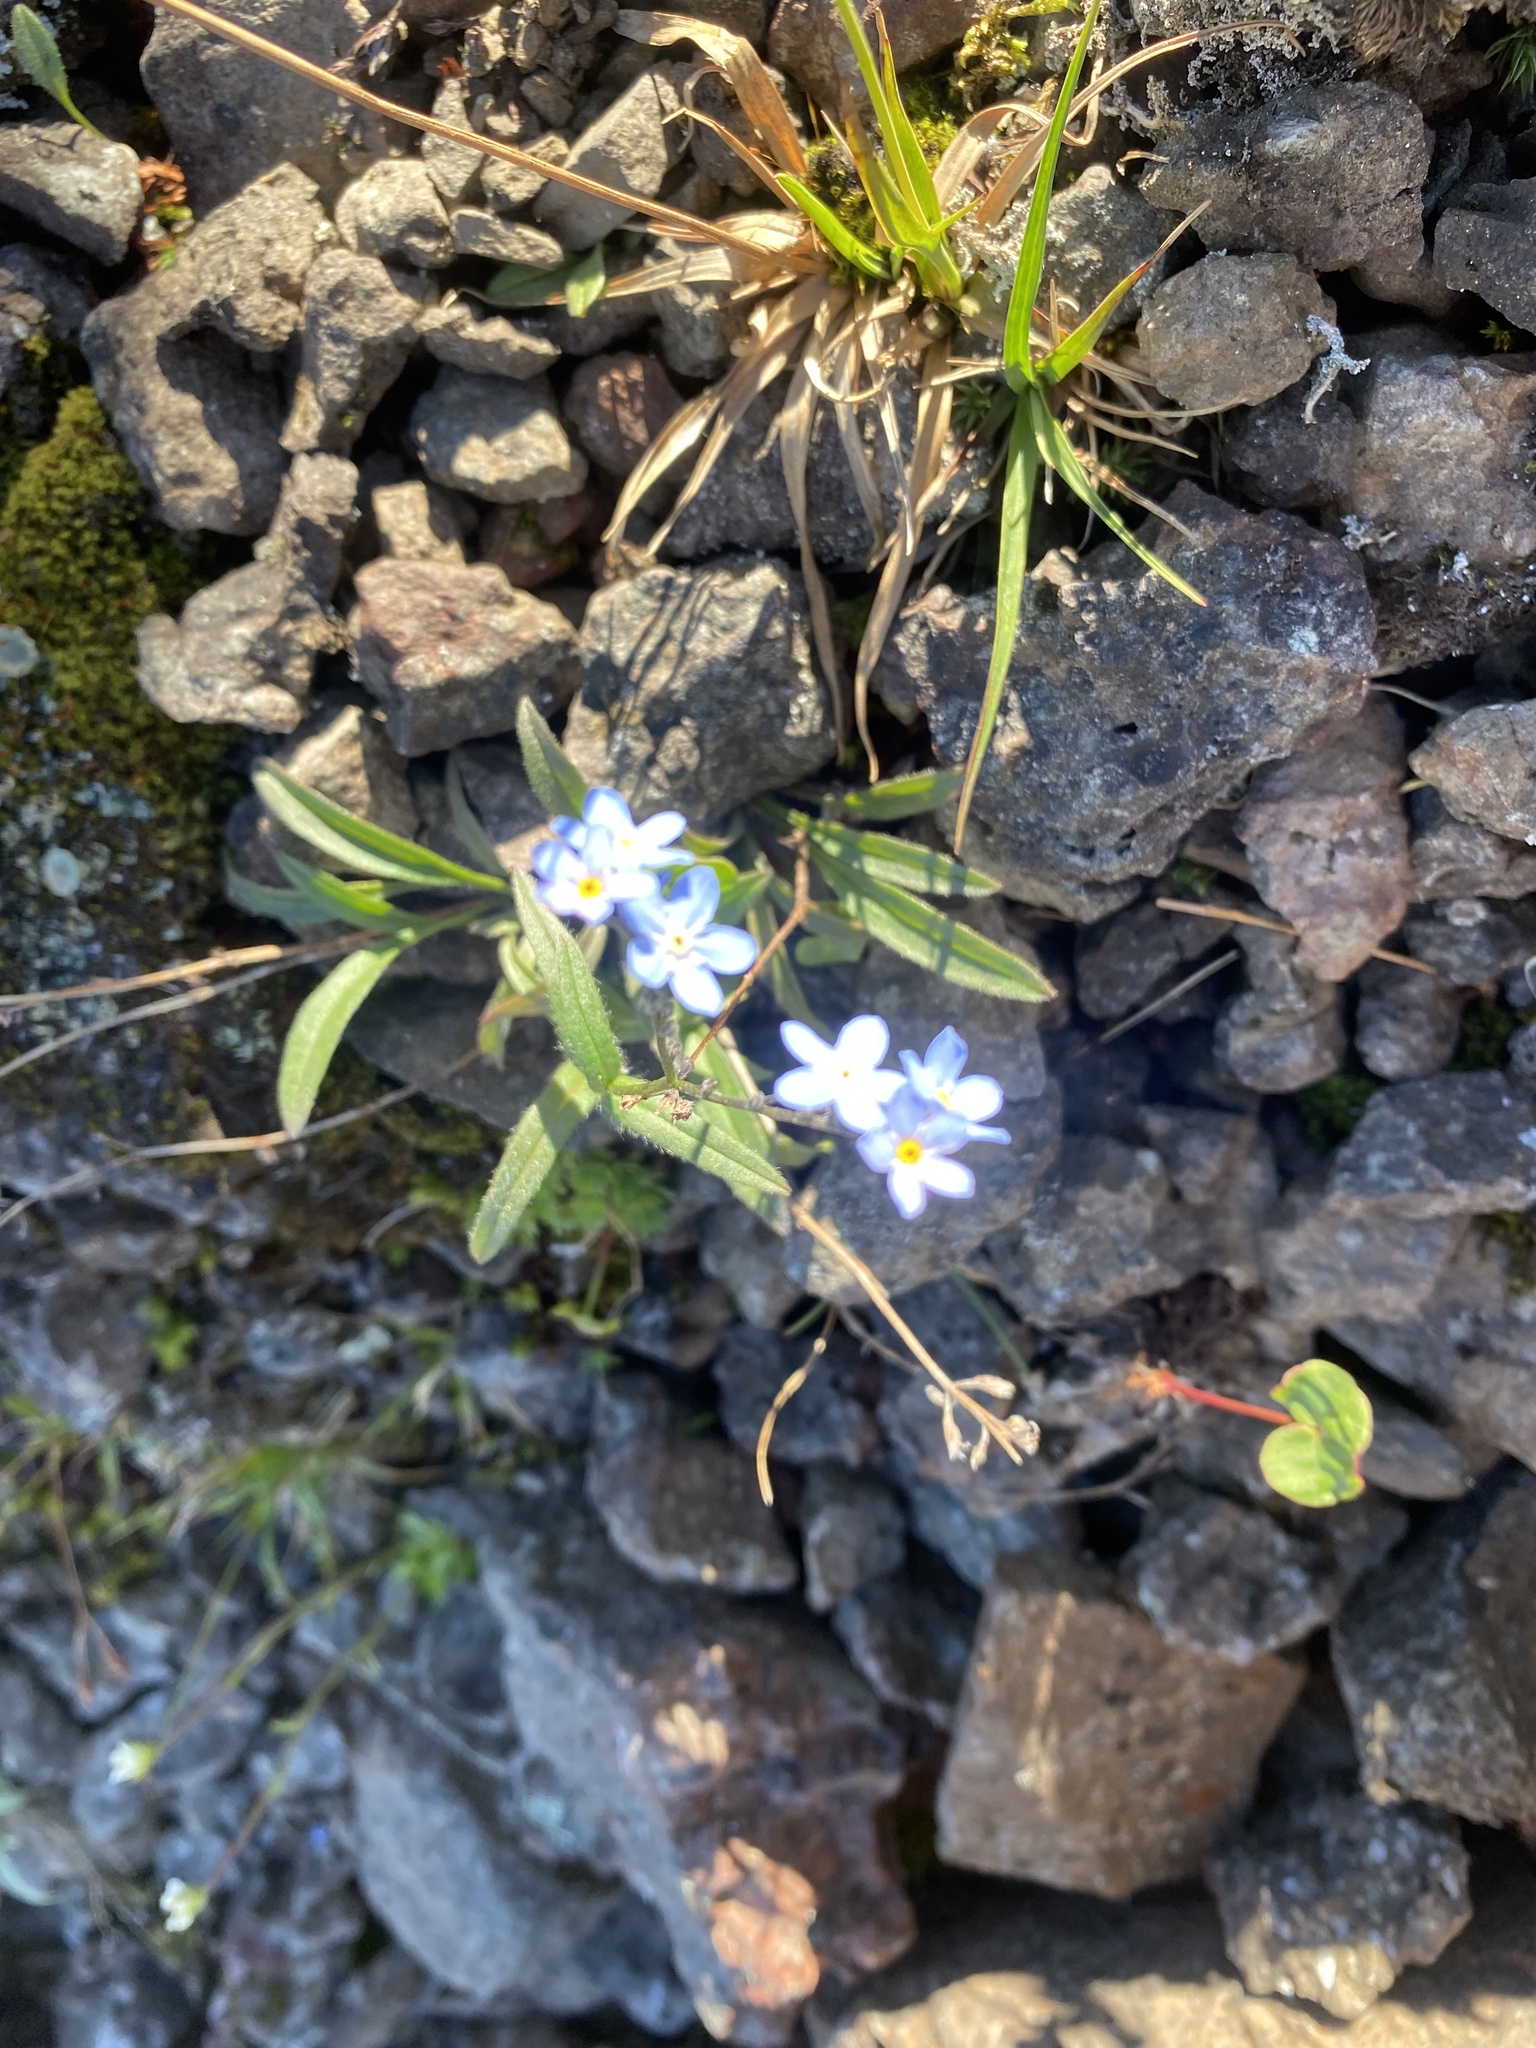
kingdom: Plantae
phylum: Tracheophyta
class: Magnoliopsida
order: Boraginales
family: Boraginaceae
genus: Myosotis
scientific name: Myosotis asiatica
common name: Asian forget-me-not
